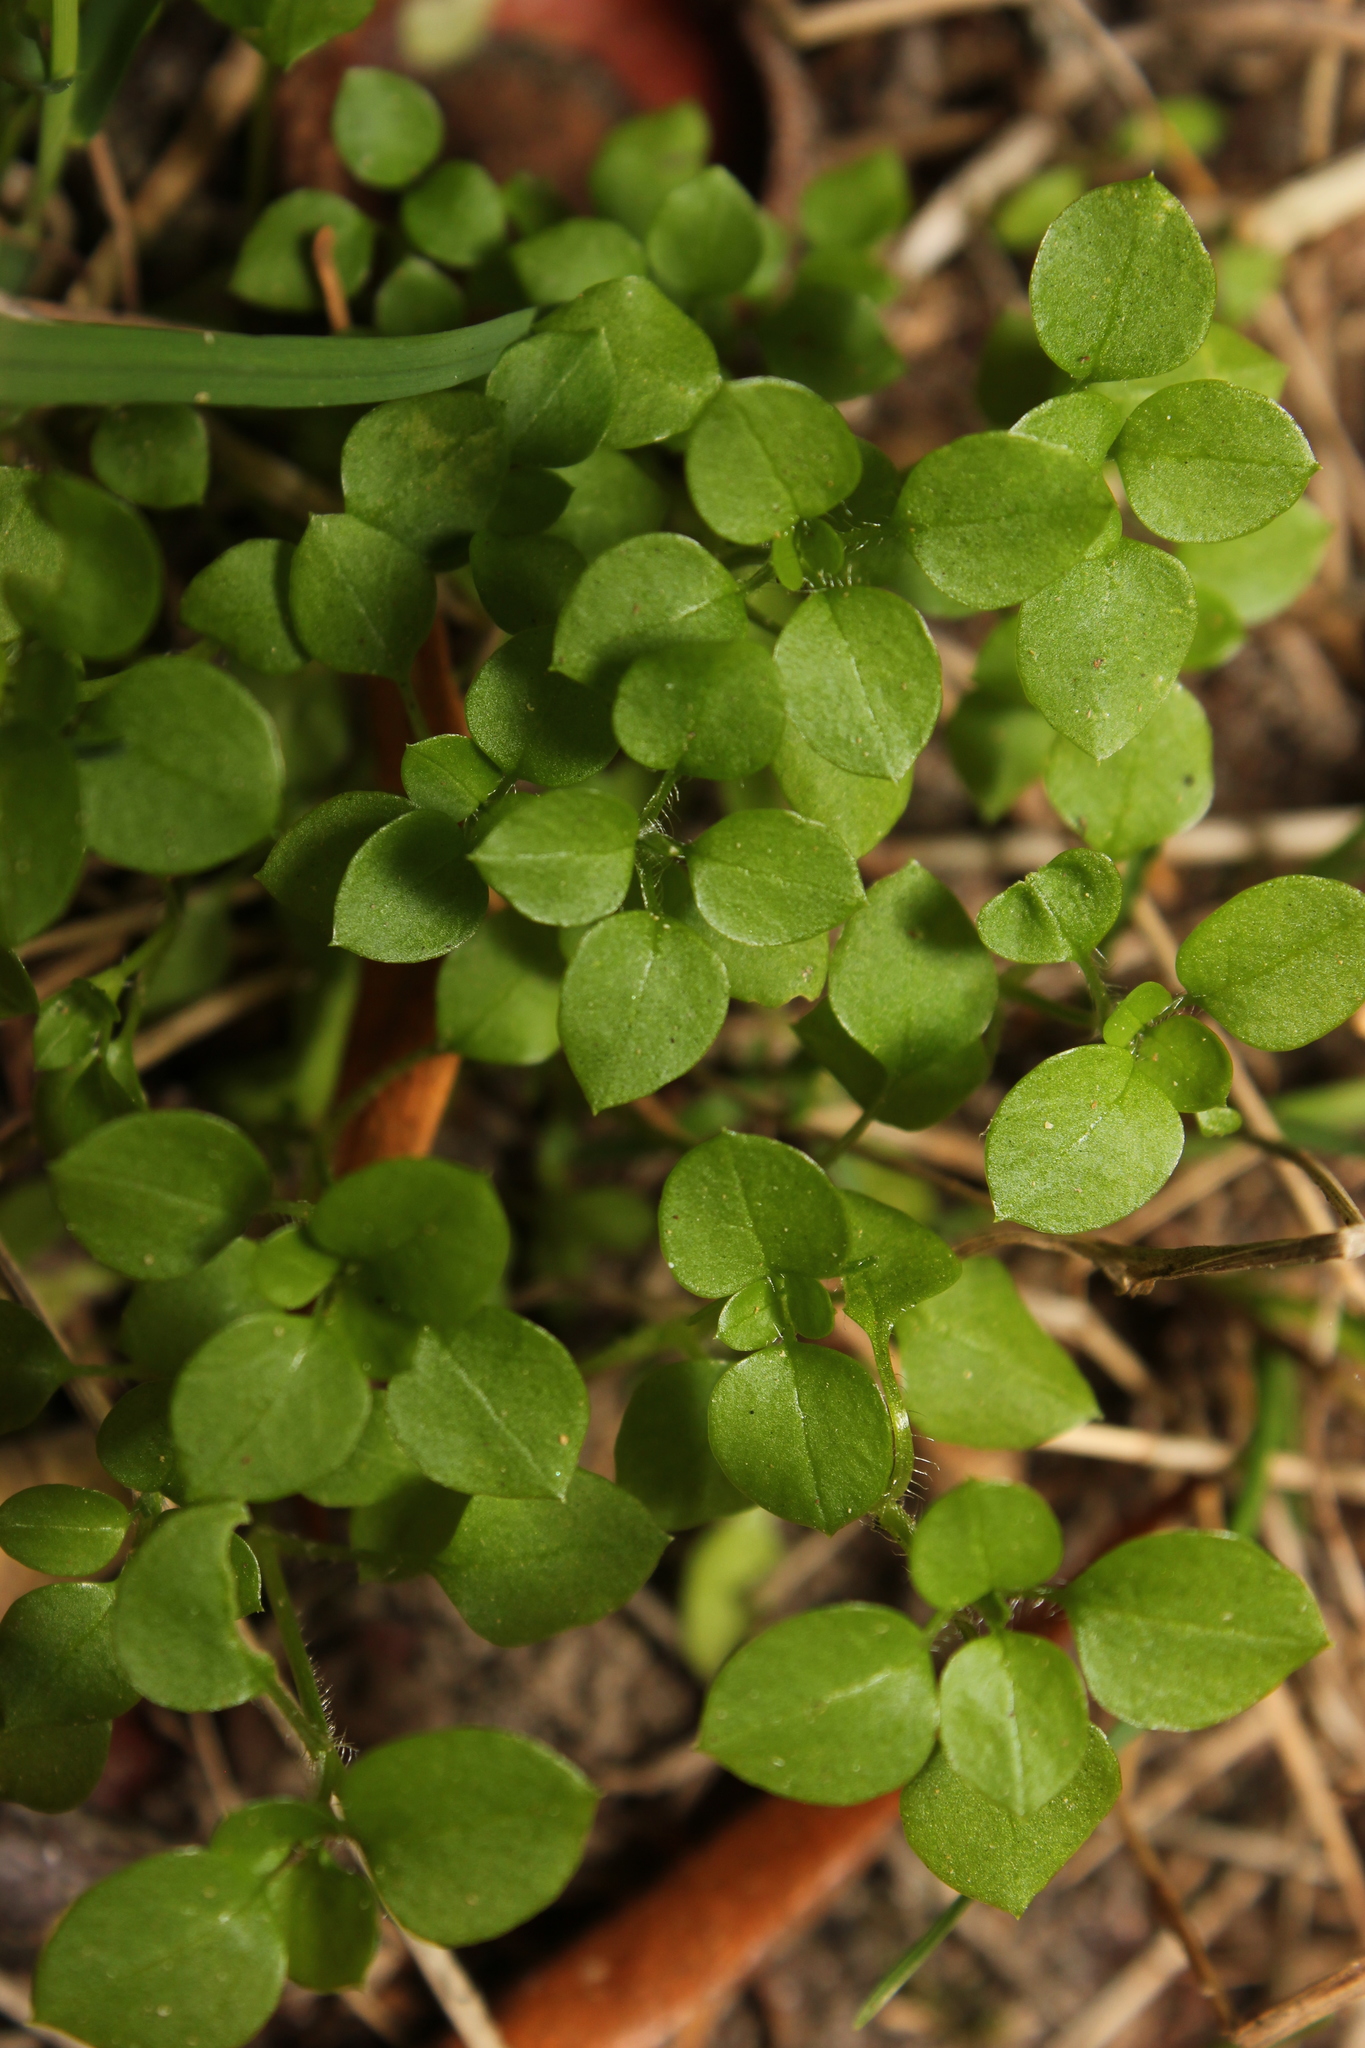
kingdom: Plantae
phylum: Tracheophyta
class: Magnoliopsida
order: Caryophyllales
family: Caryophyllaceae
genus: Stellaria
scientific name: Stellaria media
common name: Common chickweed
